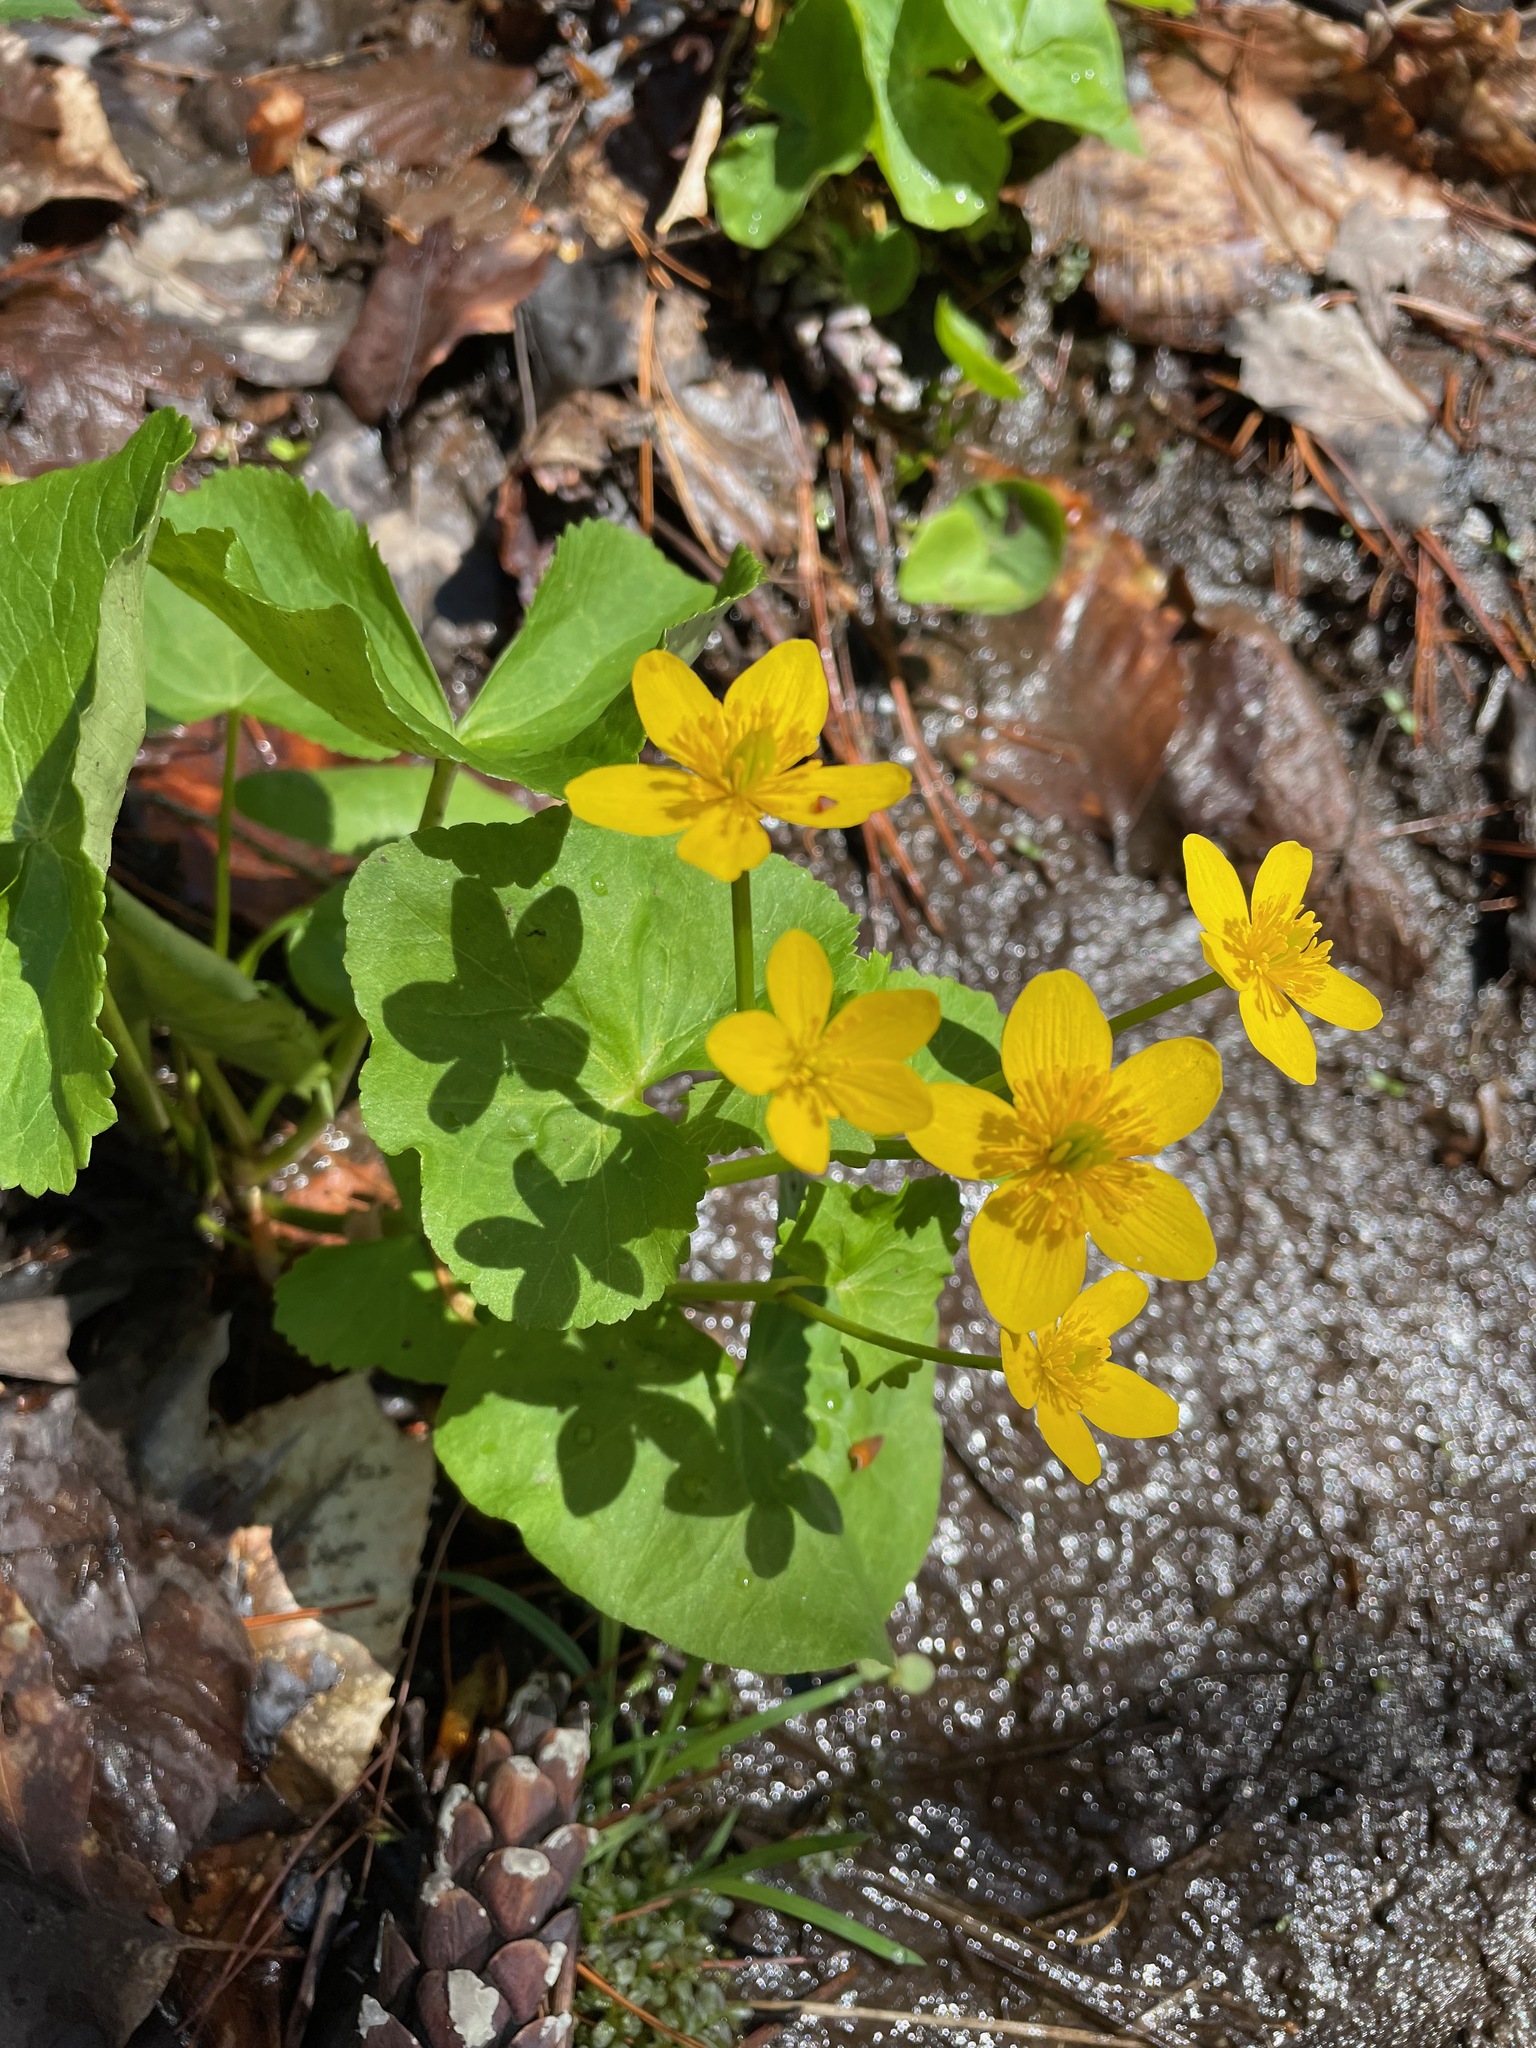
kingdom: Plantae
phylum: Tracheophyta
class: Magnoliopsida
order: Ranunculales
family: Ranunculaceae
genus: Caltha
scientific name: Caltha palustris
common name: Marsh marigold
